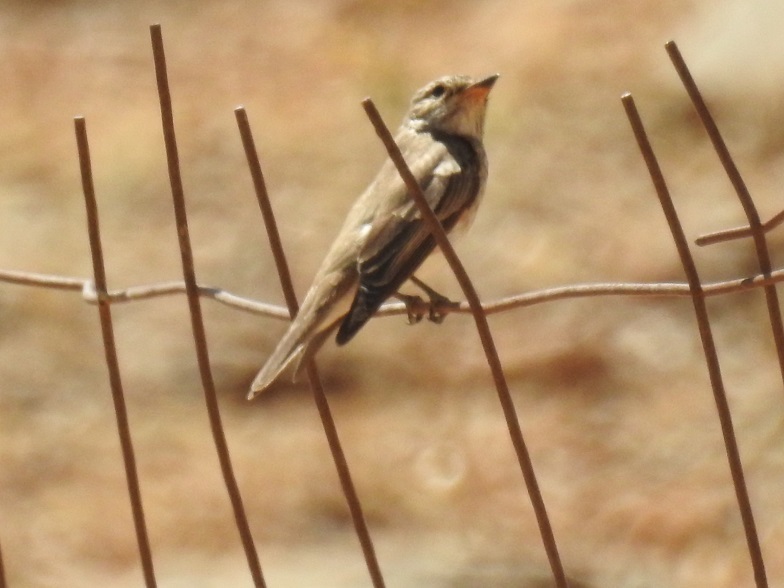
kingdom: Animalia
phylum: Chordata
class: Aves
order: Passeriformes
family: Muscicapidae
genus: Muscicapa
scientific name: Muscicapa striata
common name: Spotted flycatcher
